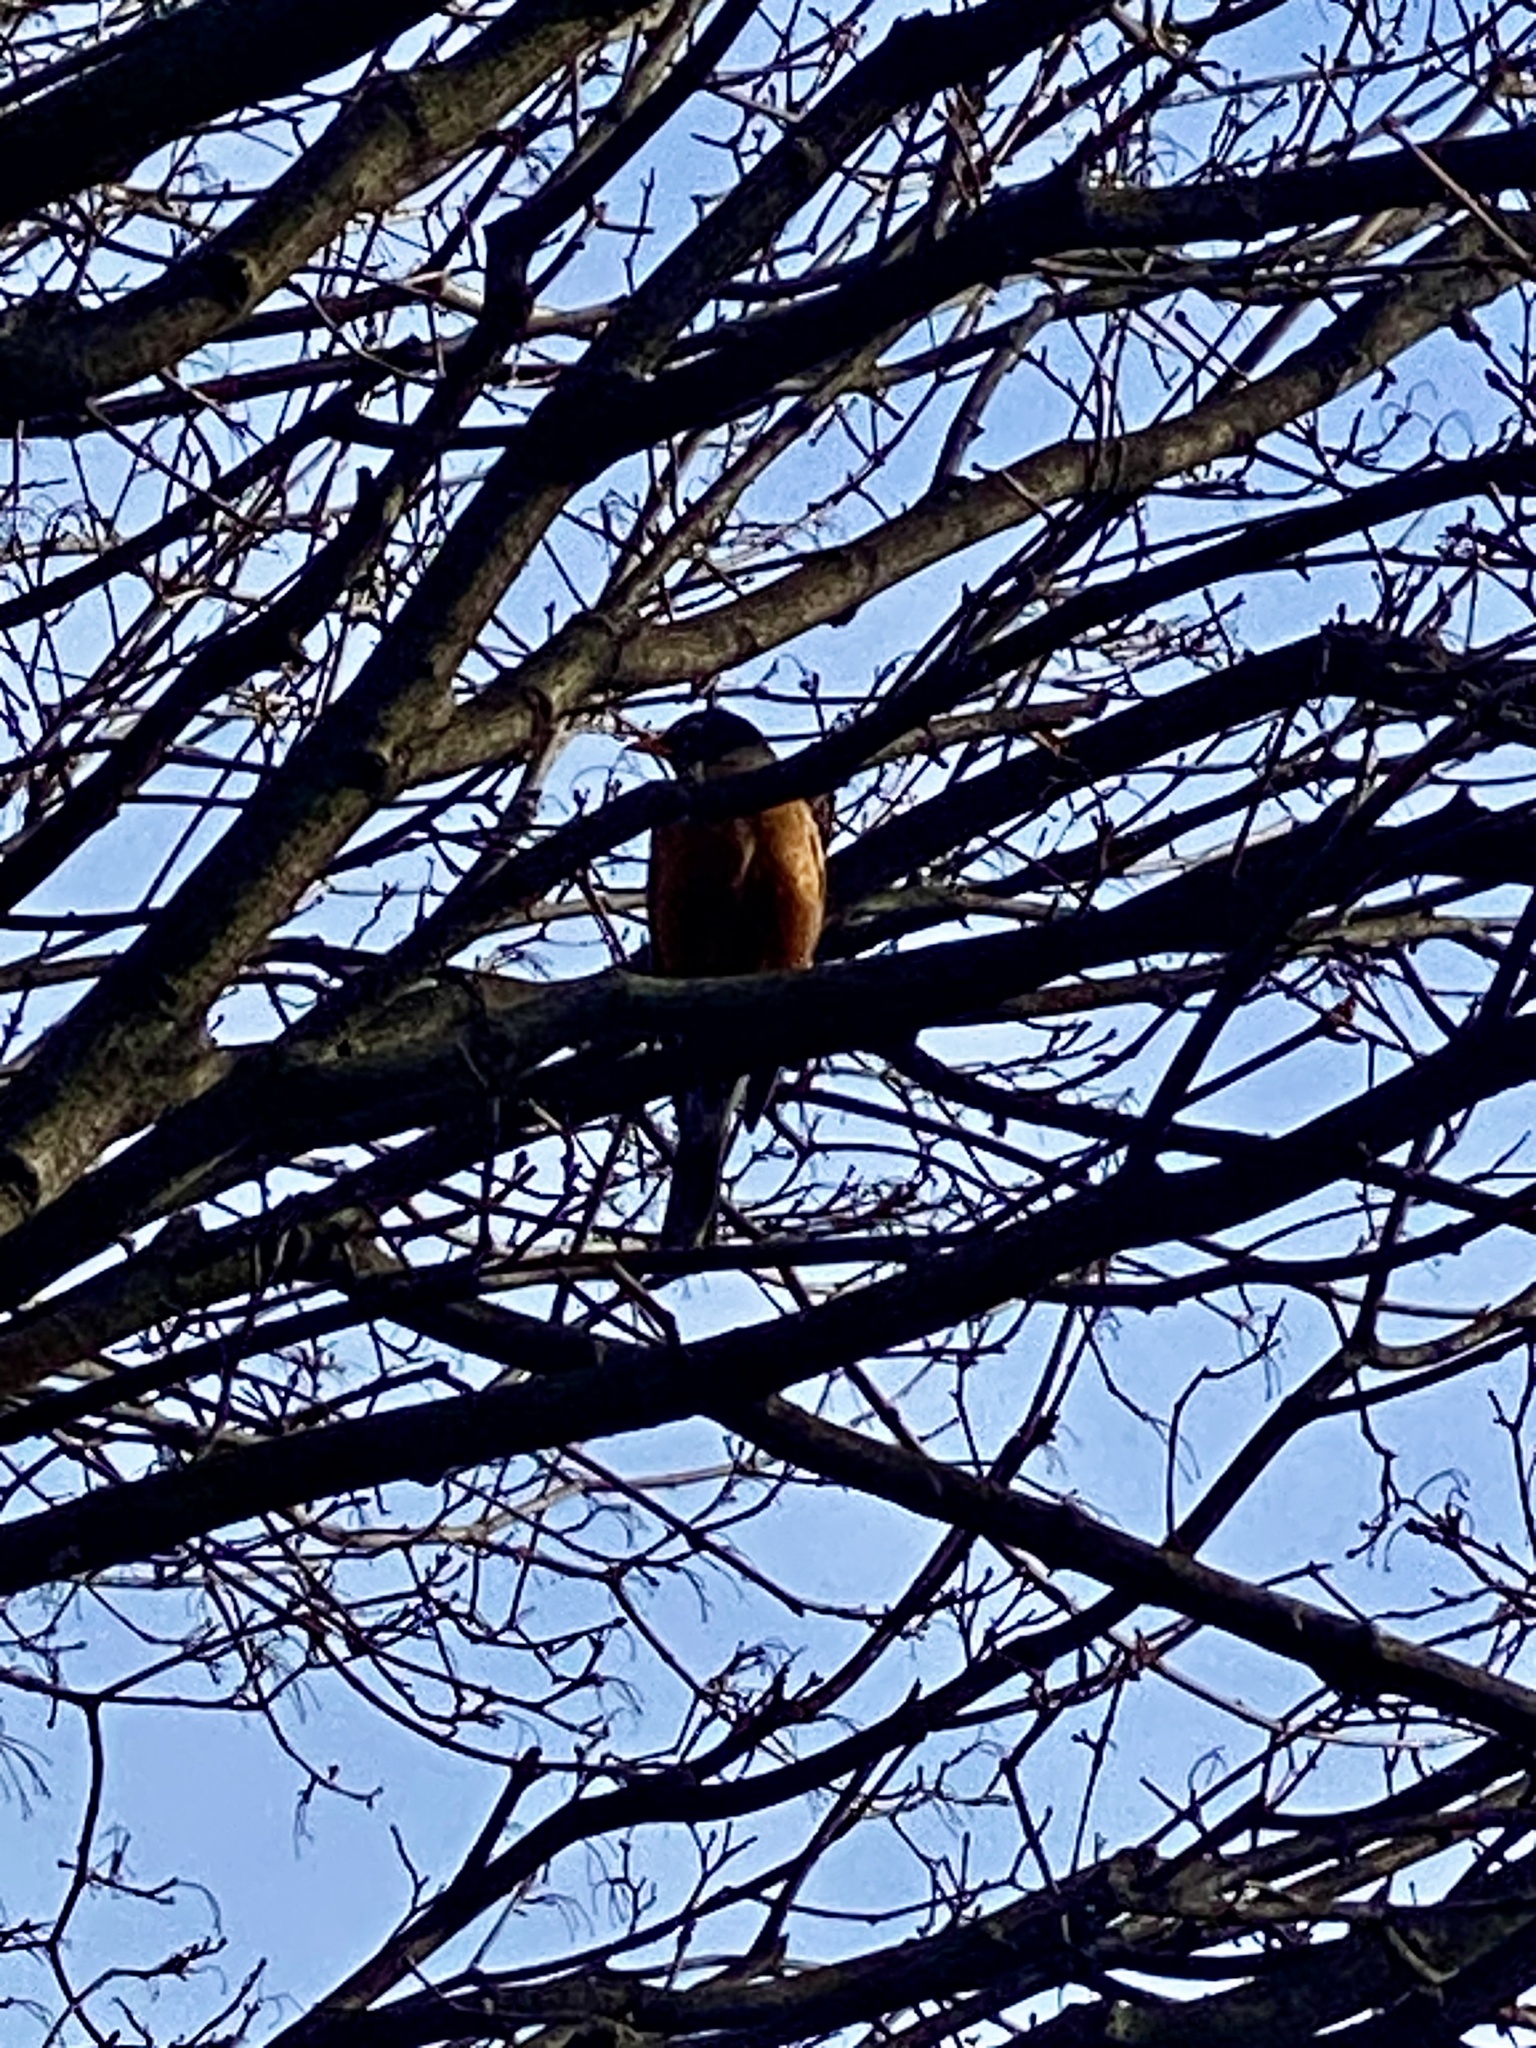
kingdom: Animalia
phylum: Chordata
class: Aves
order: Passeriformes
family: Turdidae
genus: Turdus
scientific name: Turdus migratorius
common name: American robin
